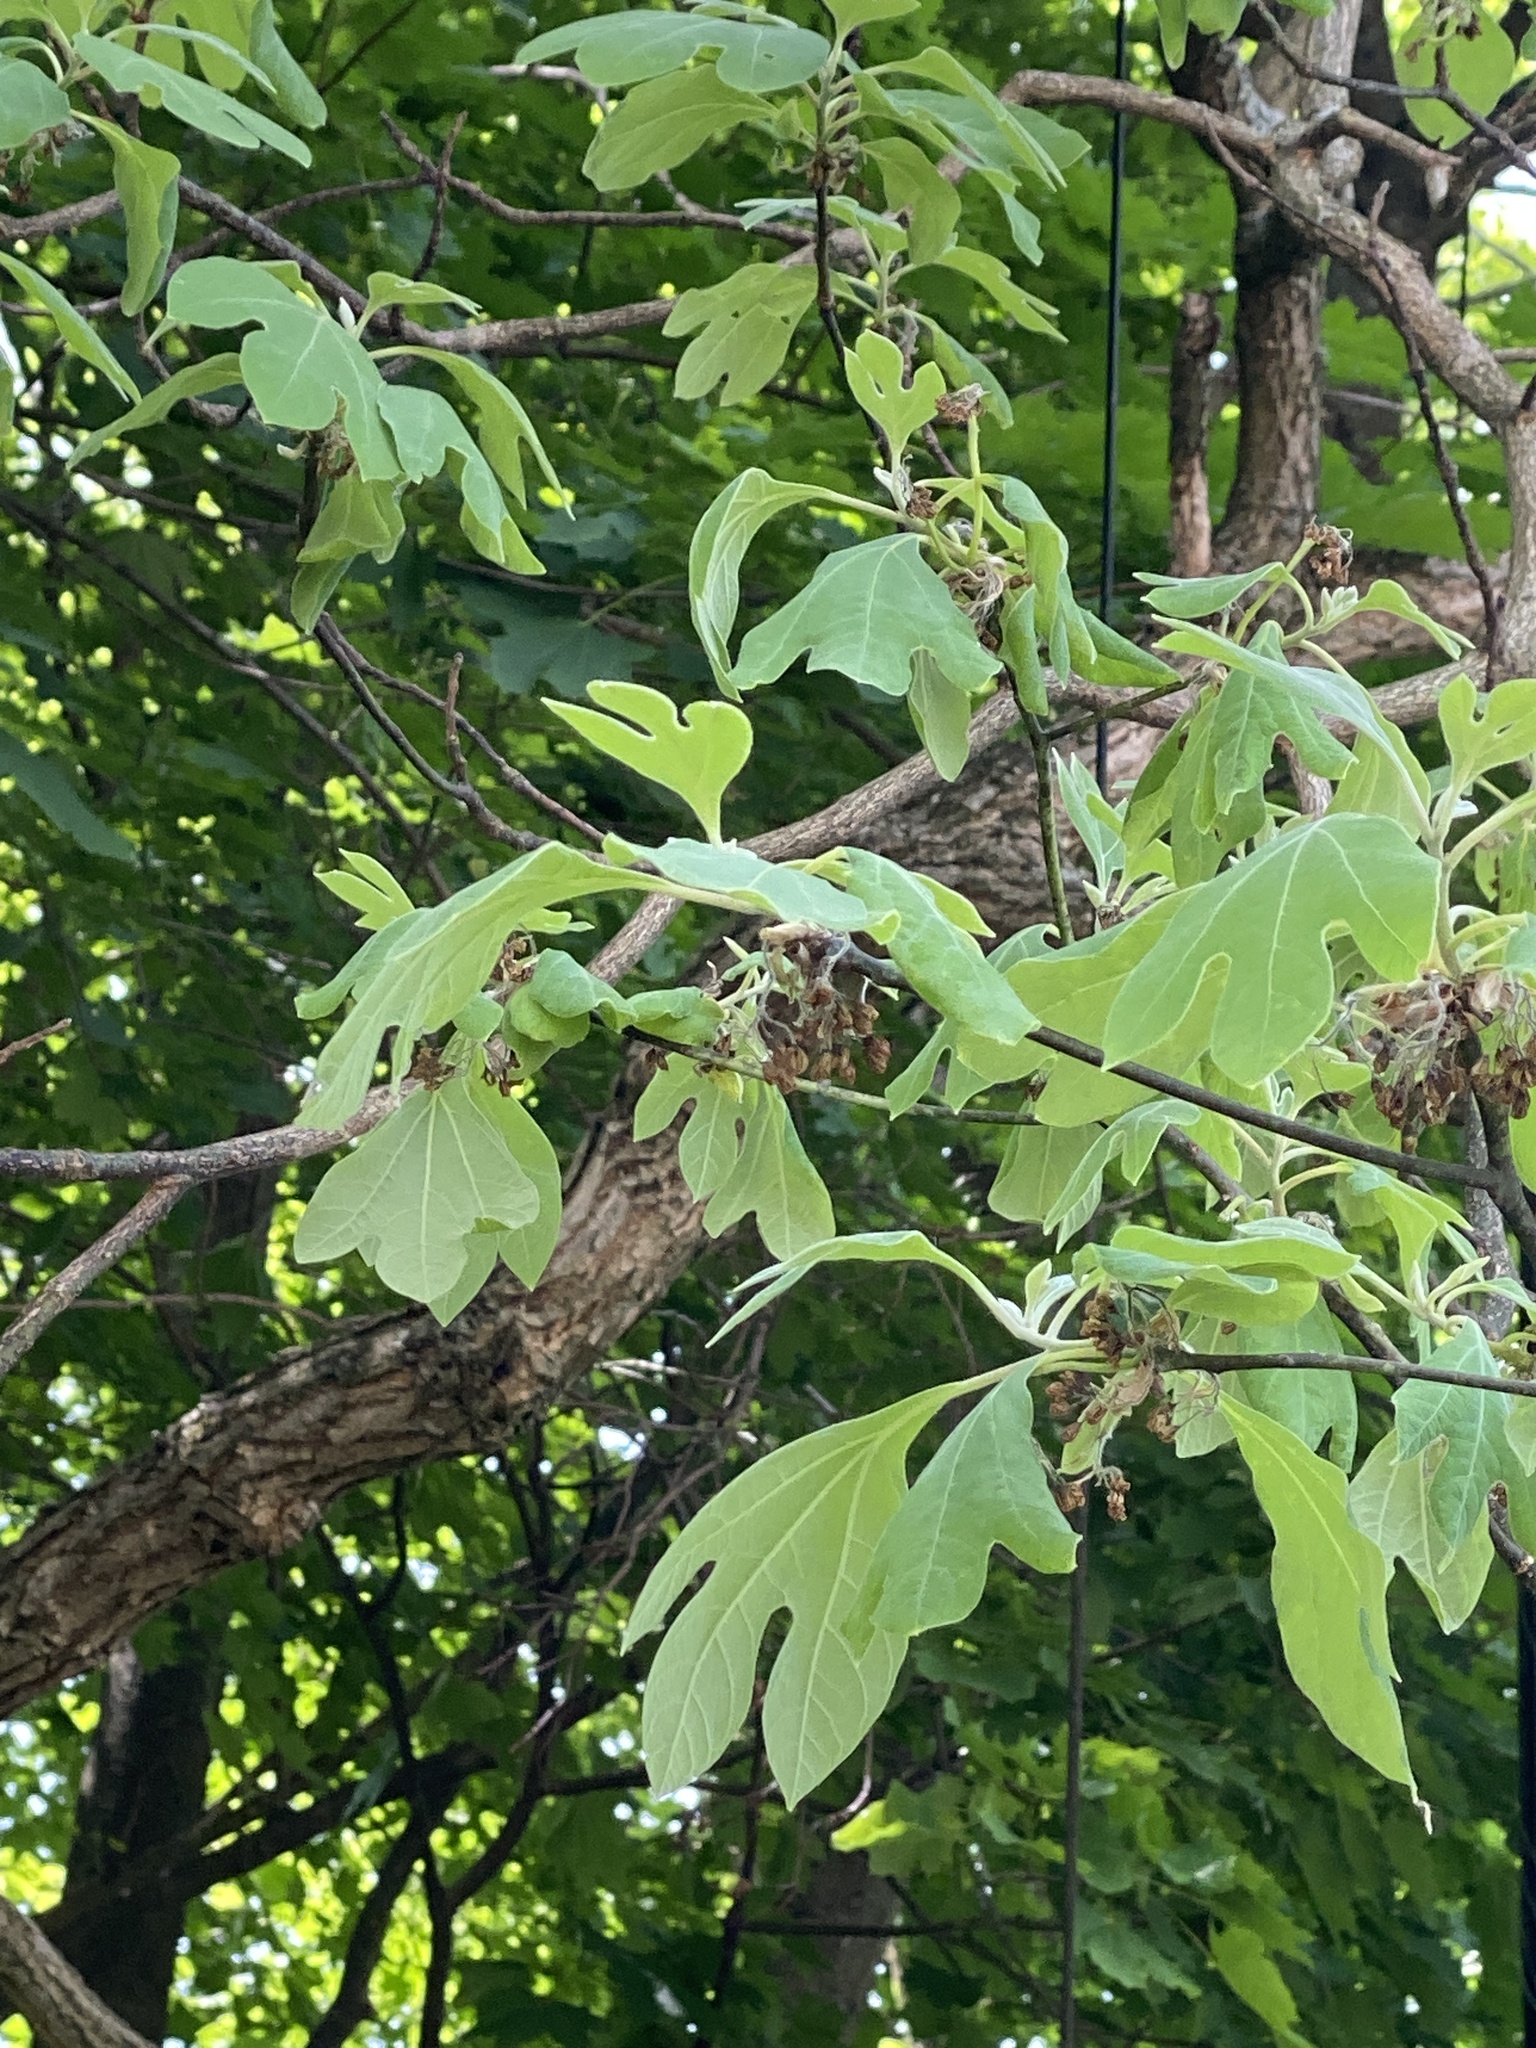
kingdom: Plantae
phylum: Tracheophyta
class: Magnoliopsida
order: Laurales
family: Lauraceae
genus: Sassafras
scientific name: Sassafras albidum
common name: Sassafras
